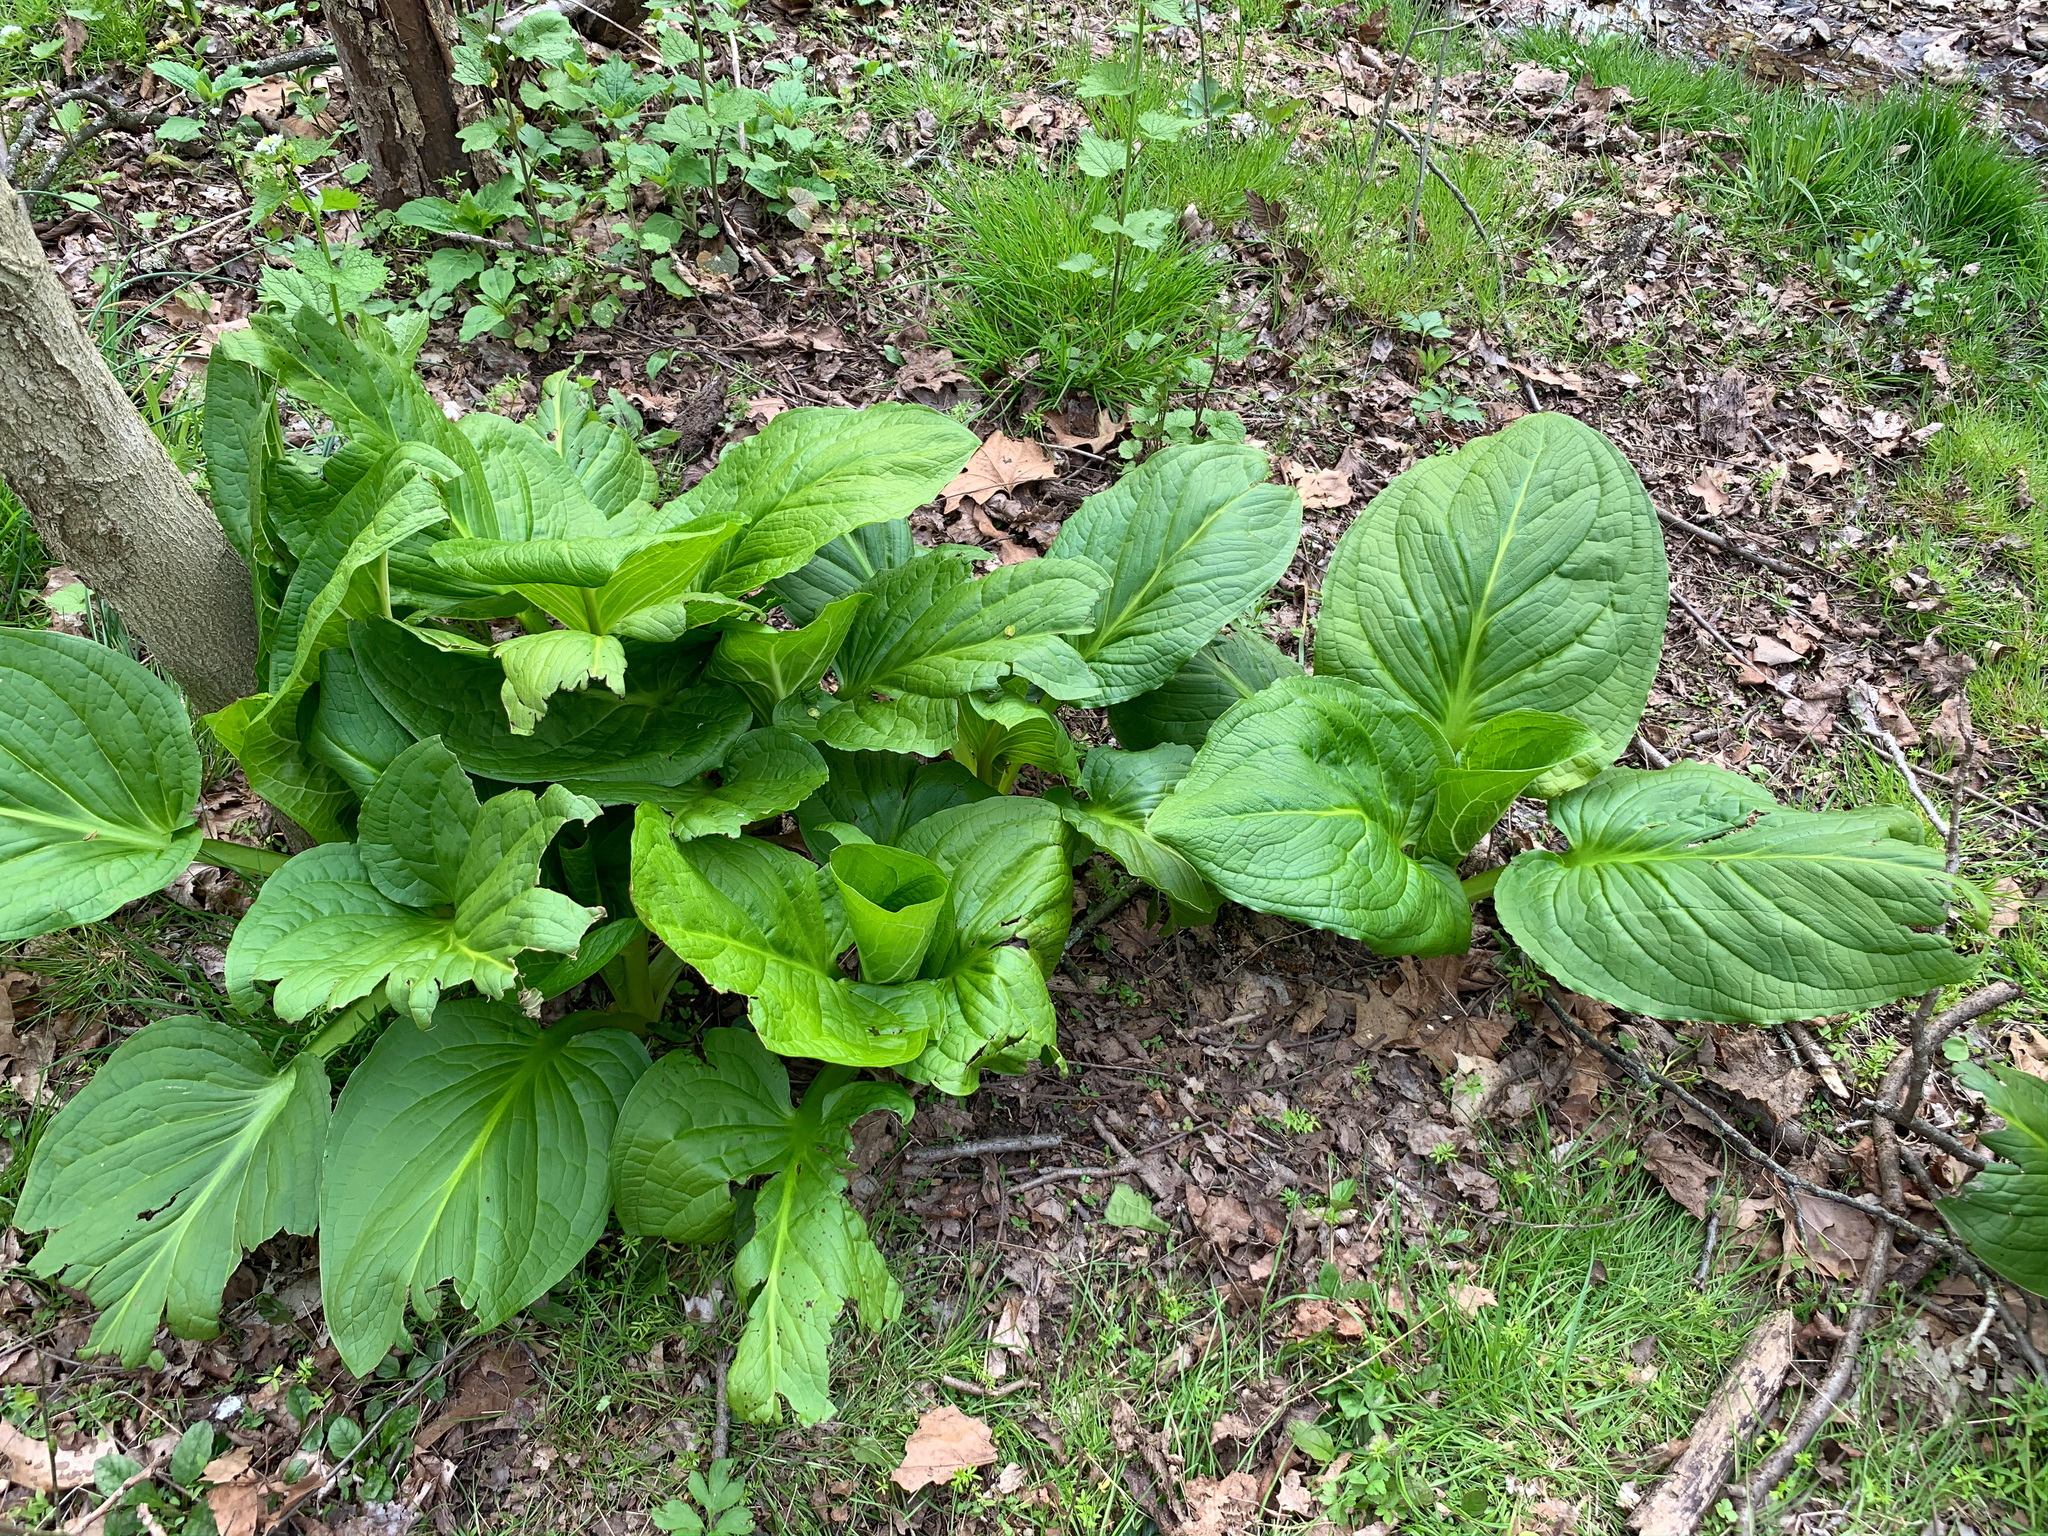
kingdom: Plantae
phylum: Tracheophyta
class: Liliopsida
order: Alismatales
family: Araceae
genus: Symplocarpus
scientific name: Symplocarpus foetidus
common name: Eastern skunk cabbage
